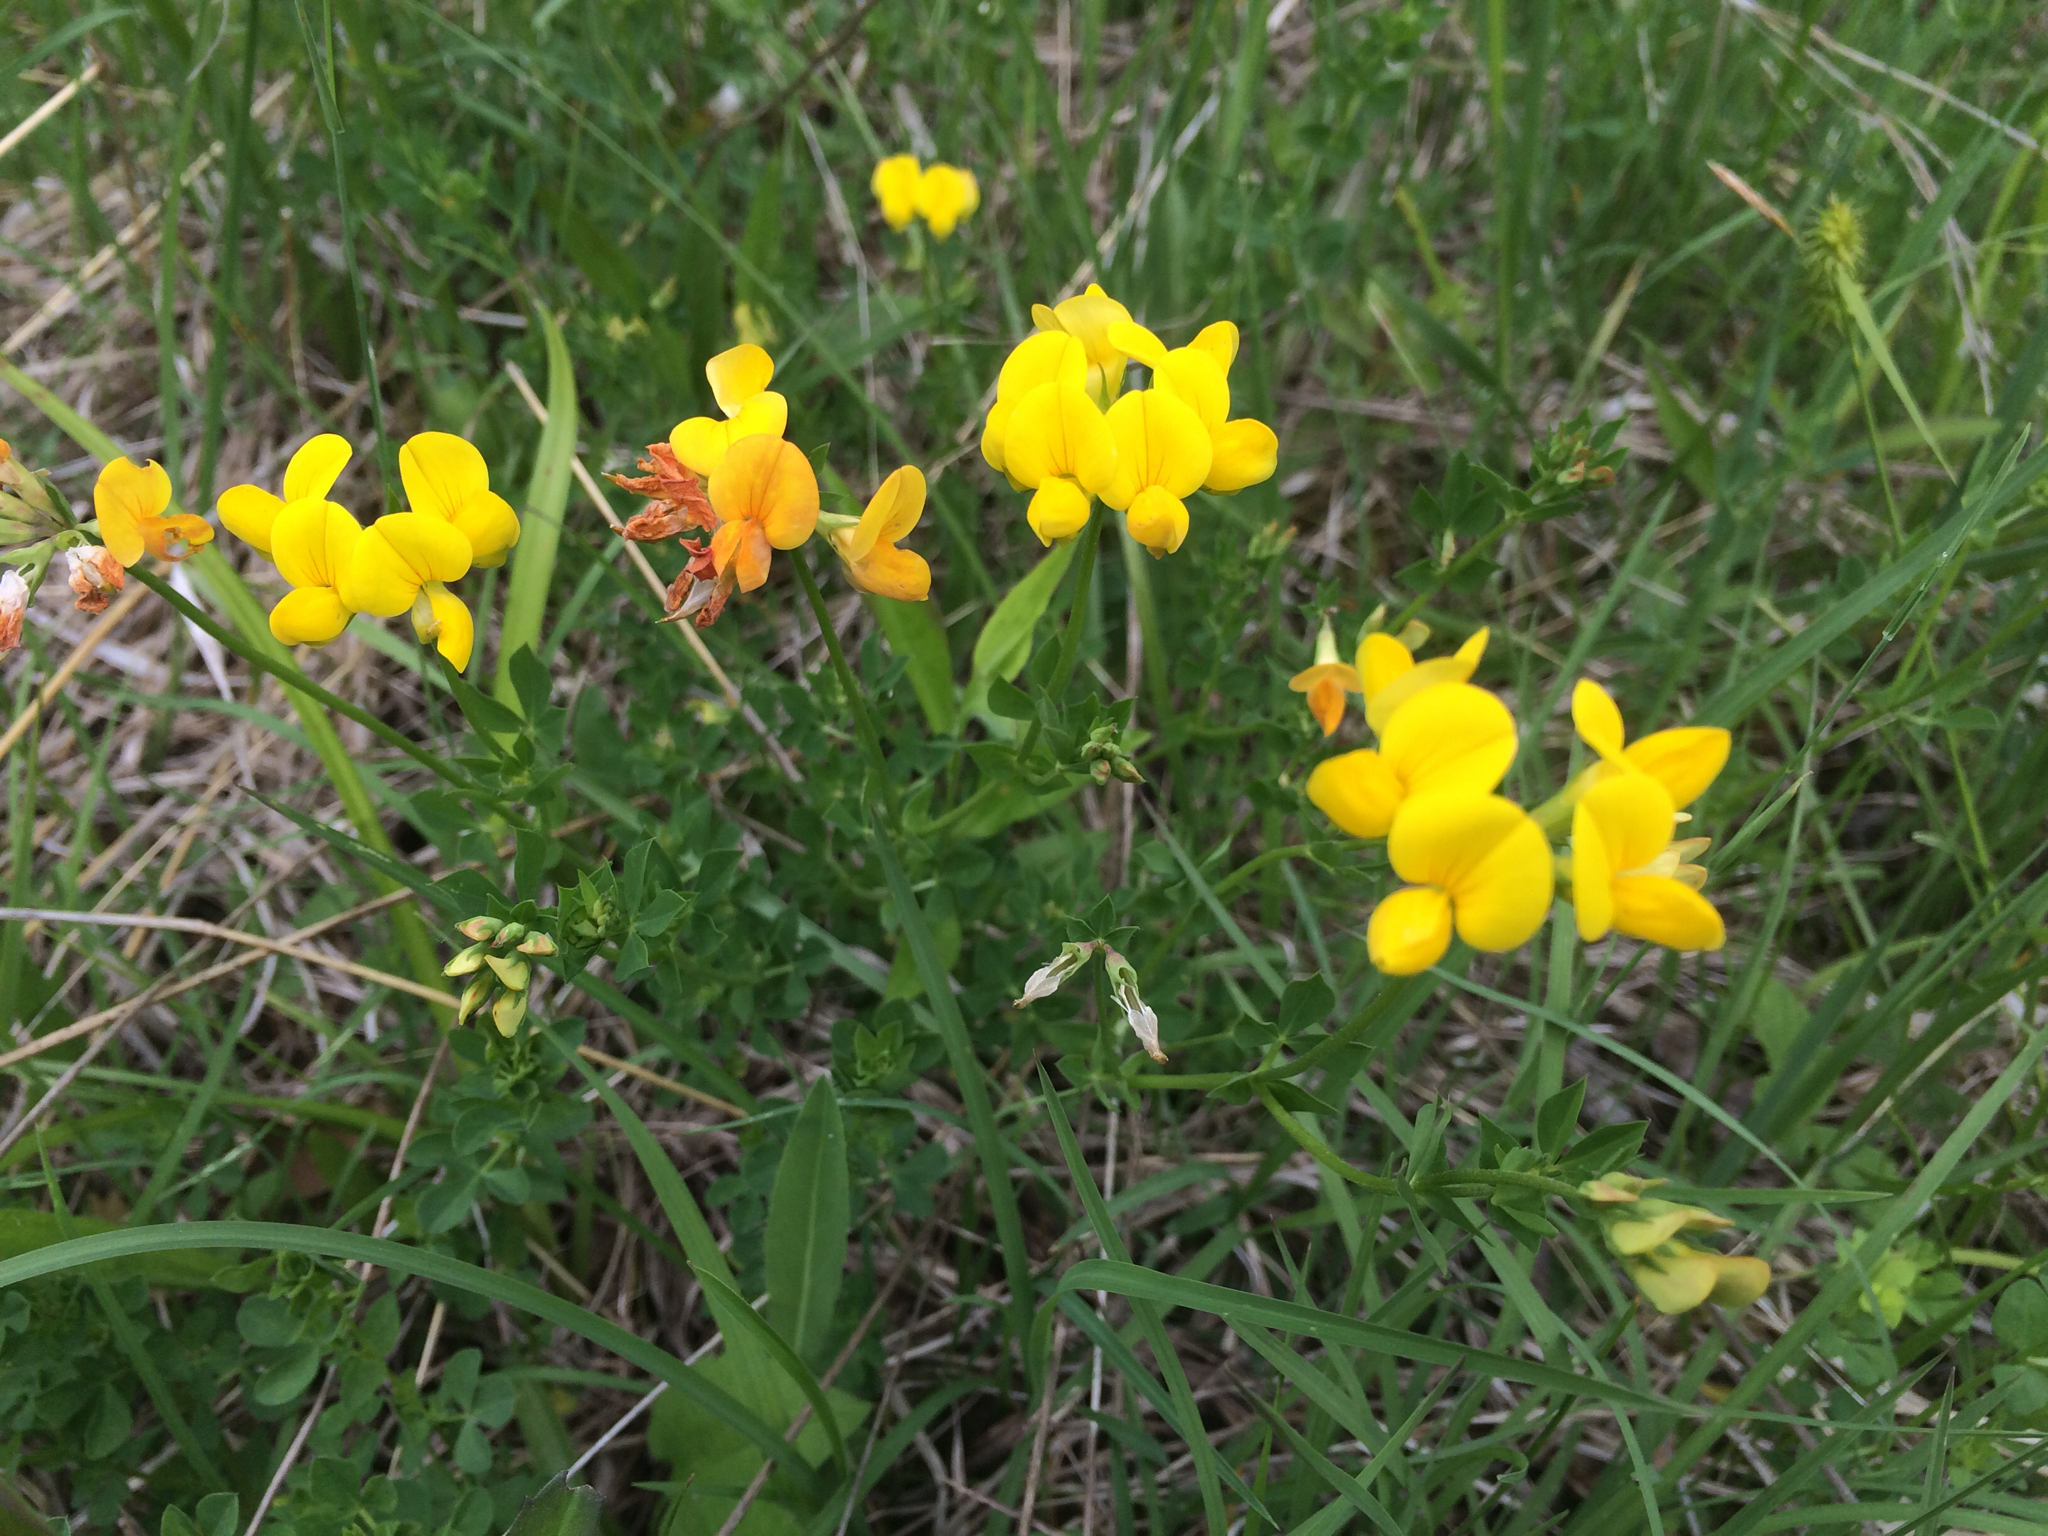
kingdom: Plantae
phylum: Tracheophyta
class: Magnoliopsida
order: Fabales
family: Fabaceae
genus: Lotus
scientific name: Lotus corniculatus
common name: Common bird's-foot-trefoil
